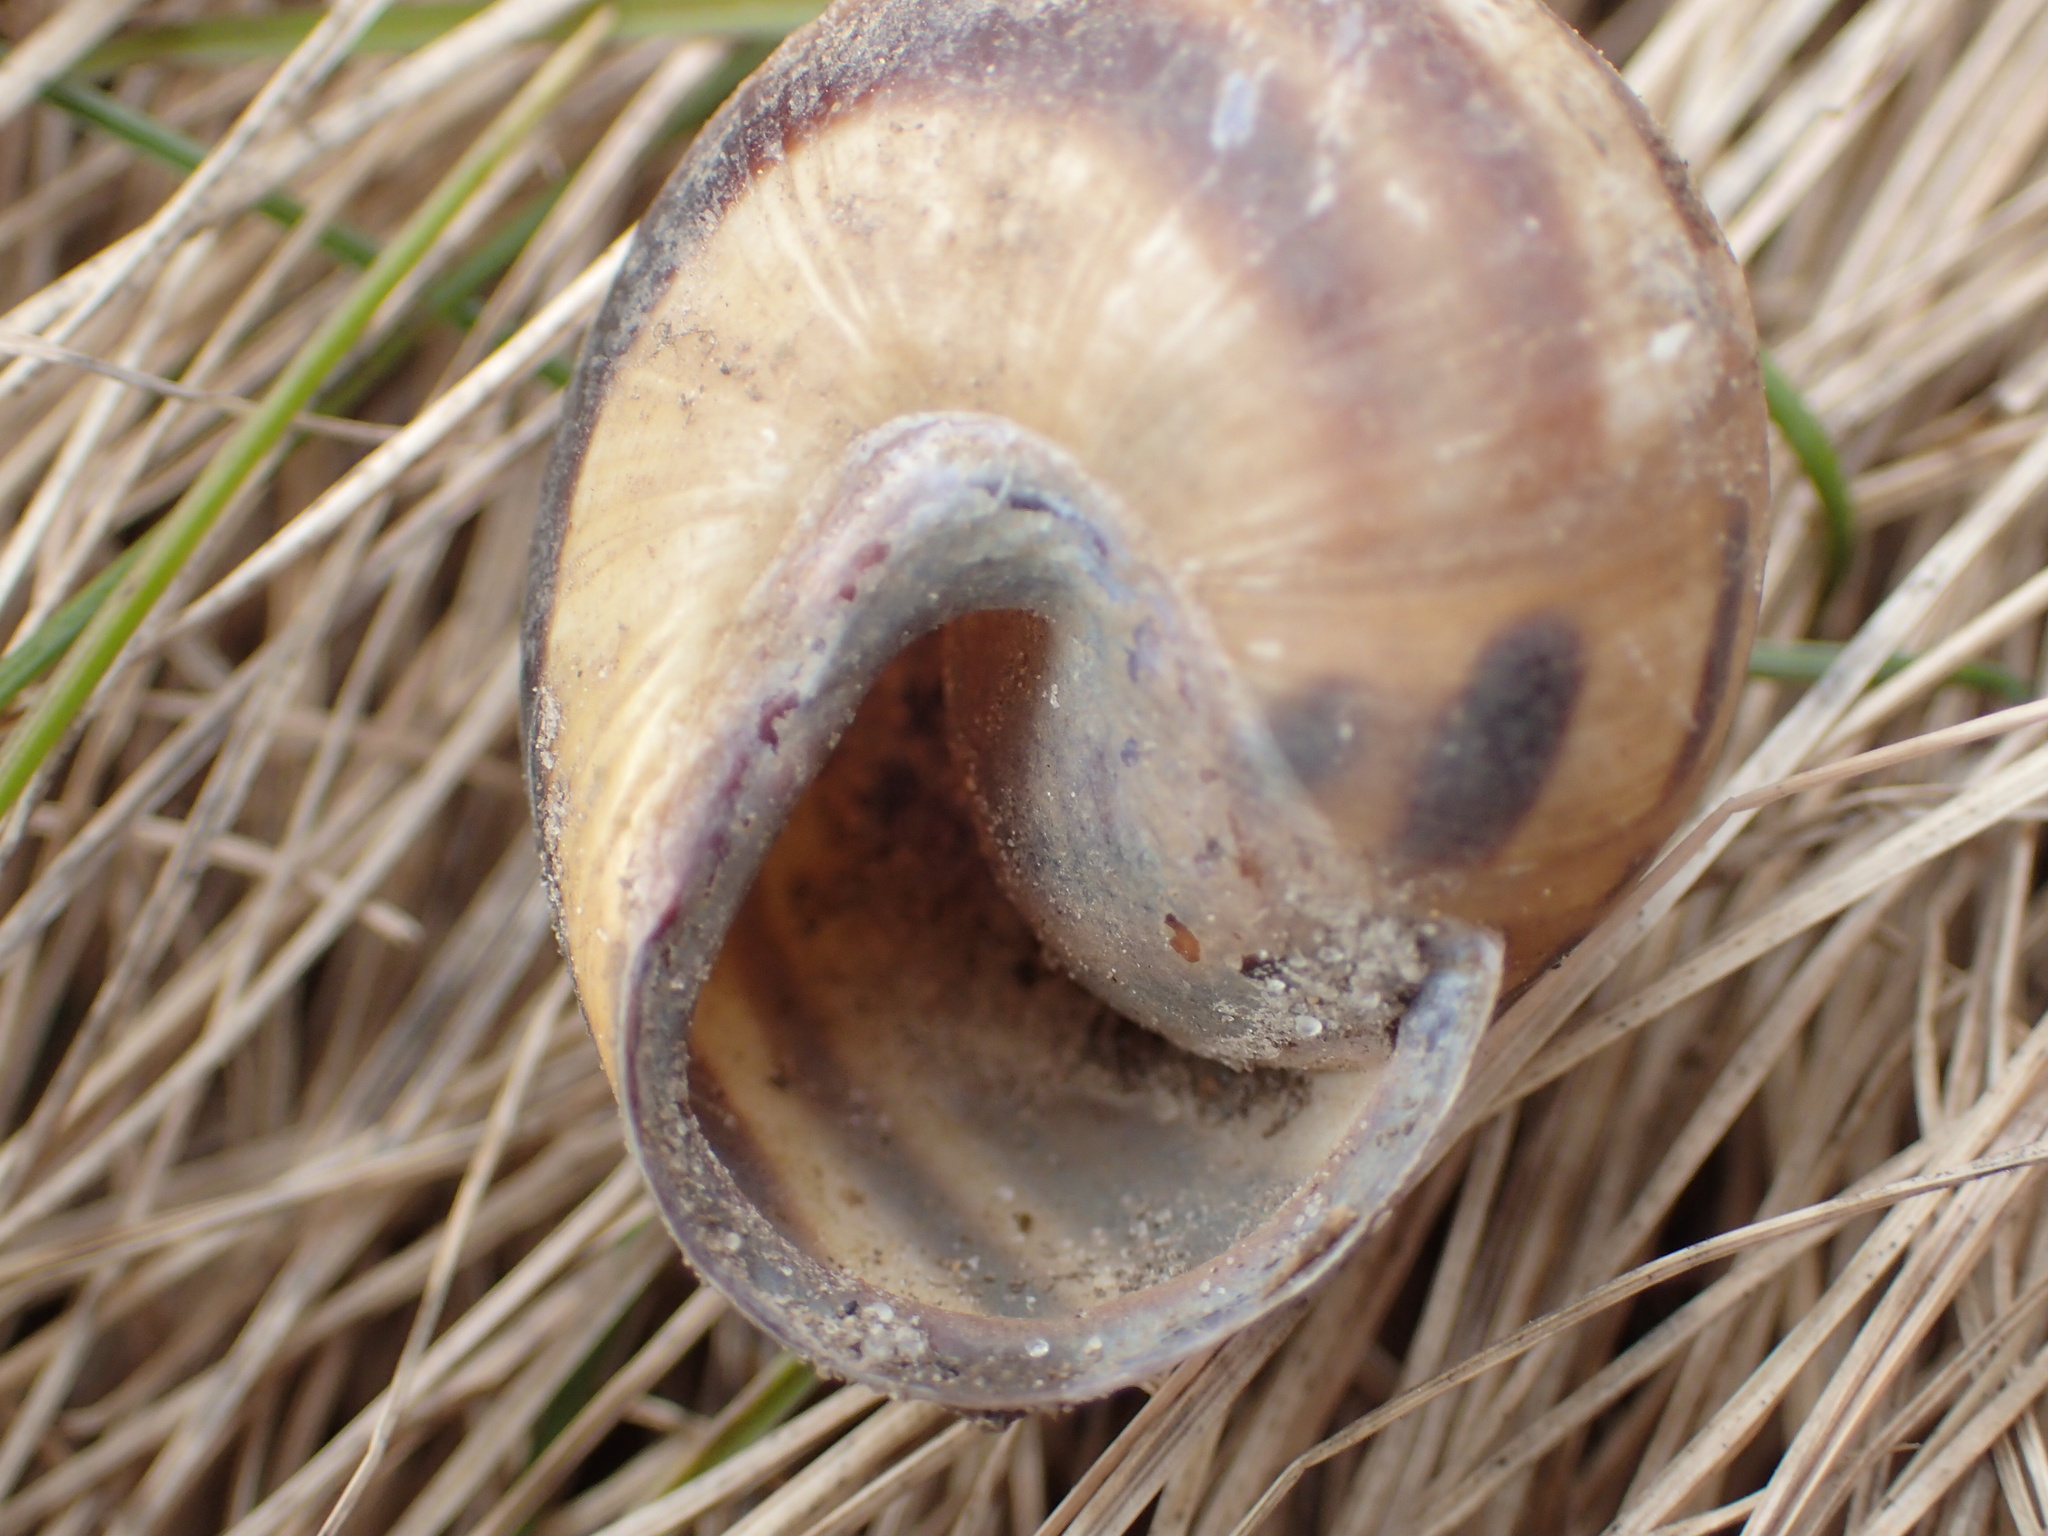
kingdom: Animalia
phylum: Mollusca
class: Gastropoda
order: Stylommatophora
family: Helicidae
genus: Cepaea
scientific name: Cepaea nemoralis
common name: Grovesnail
